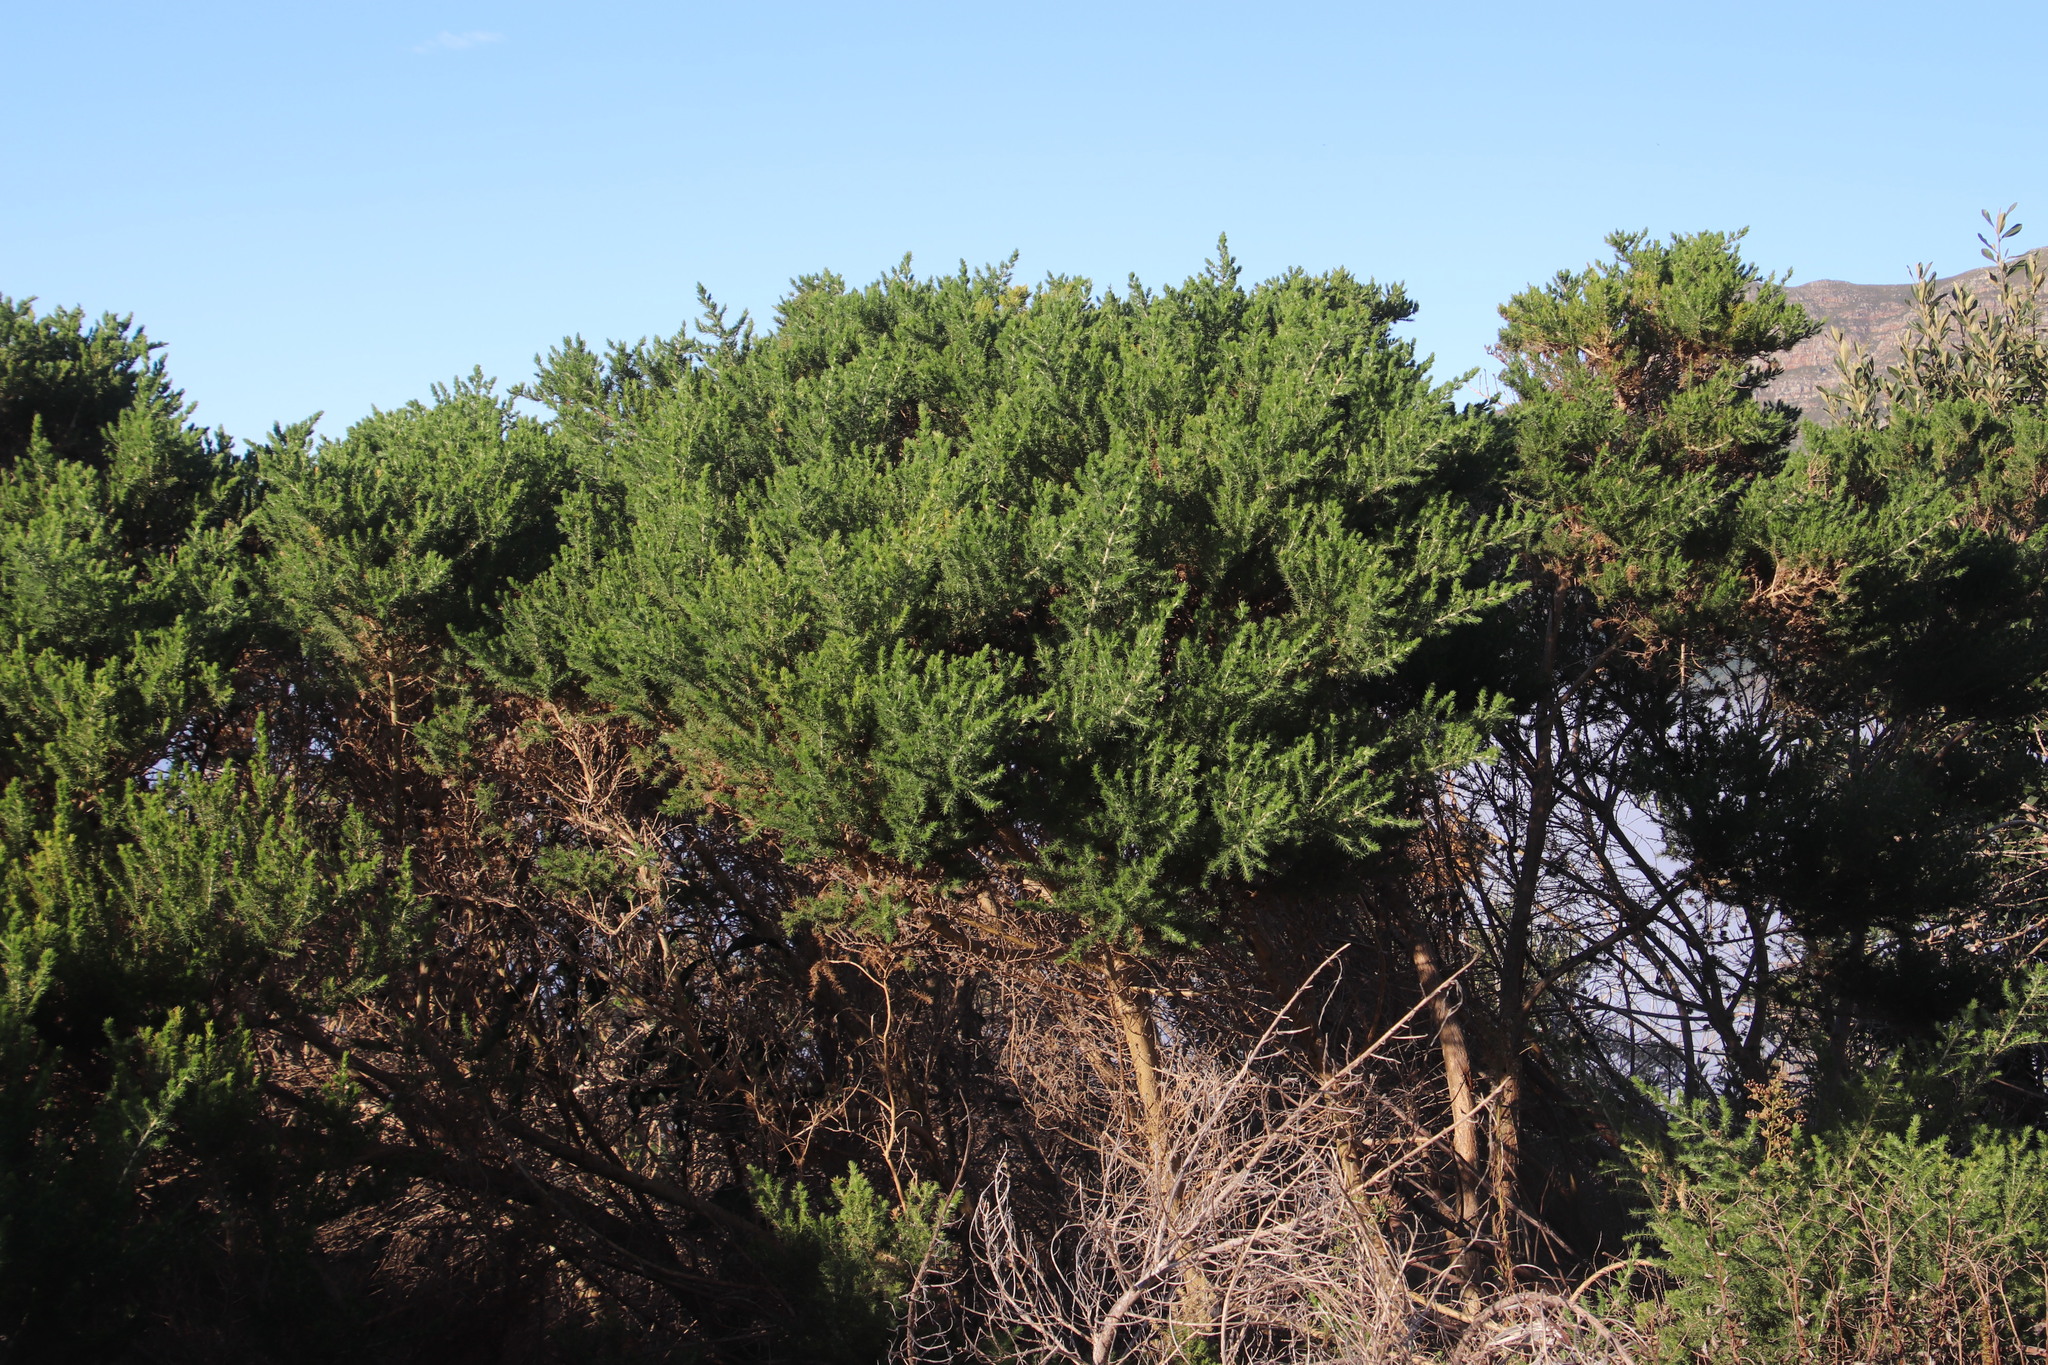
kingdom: Plantae
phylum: Tracheophyta
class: Magnoliopsida
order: Fabales
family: Fabaceae
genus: Aspalathus
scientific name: Aspalathus chenopoda
